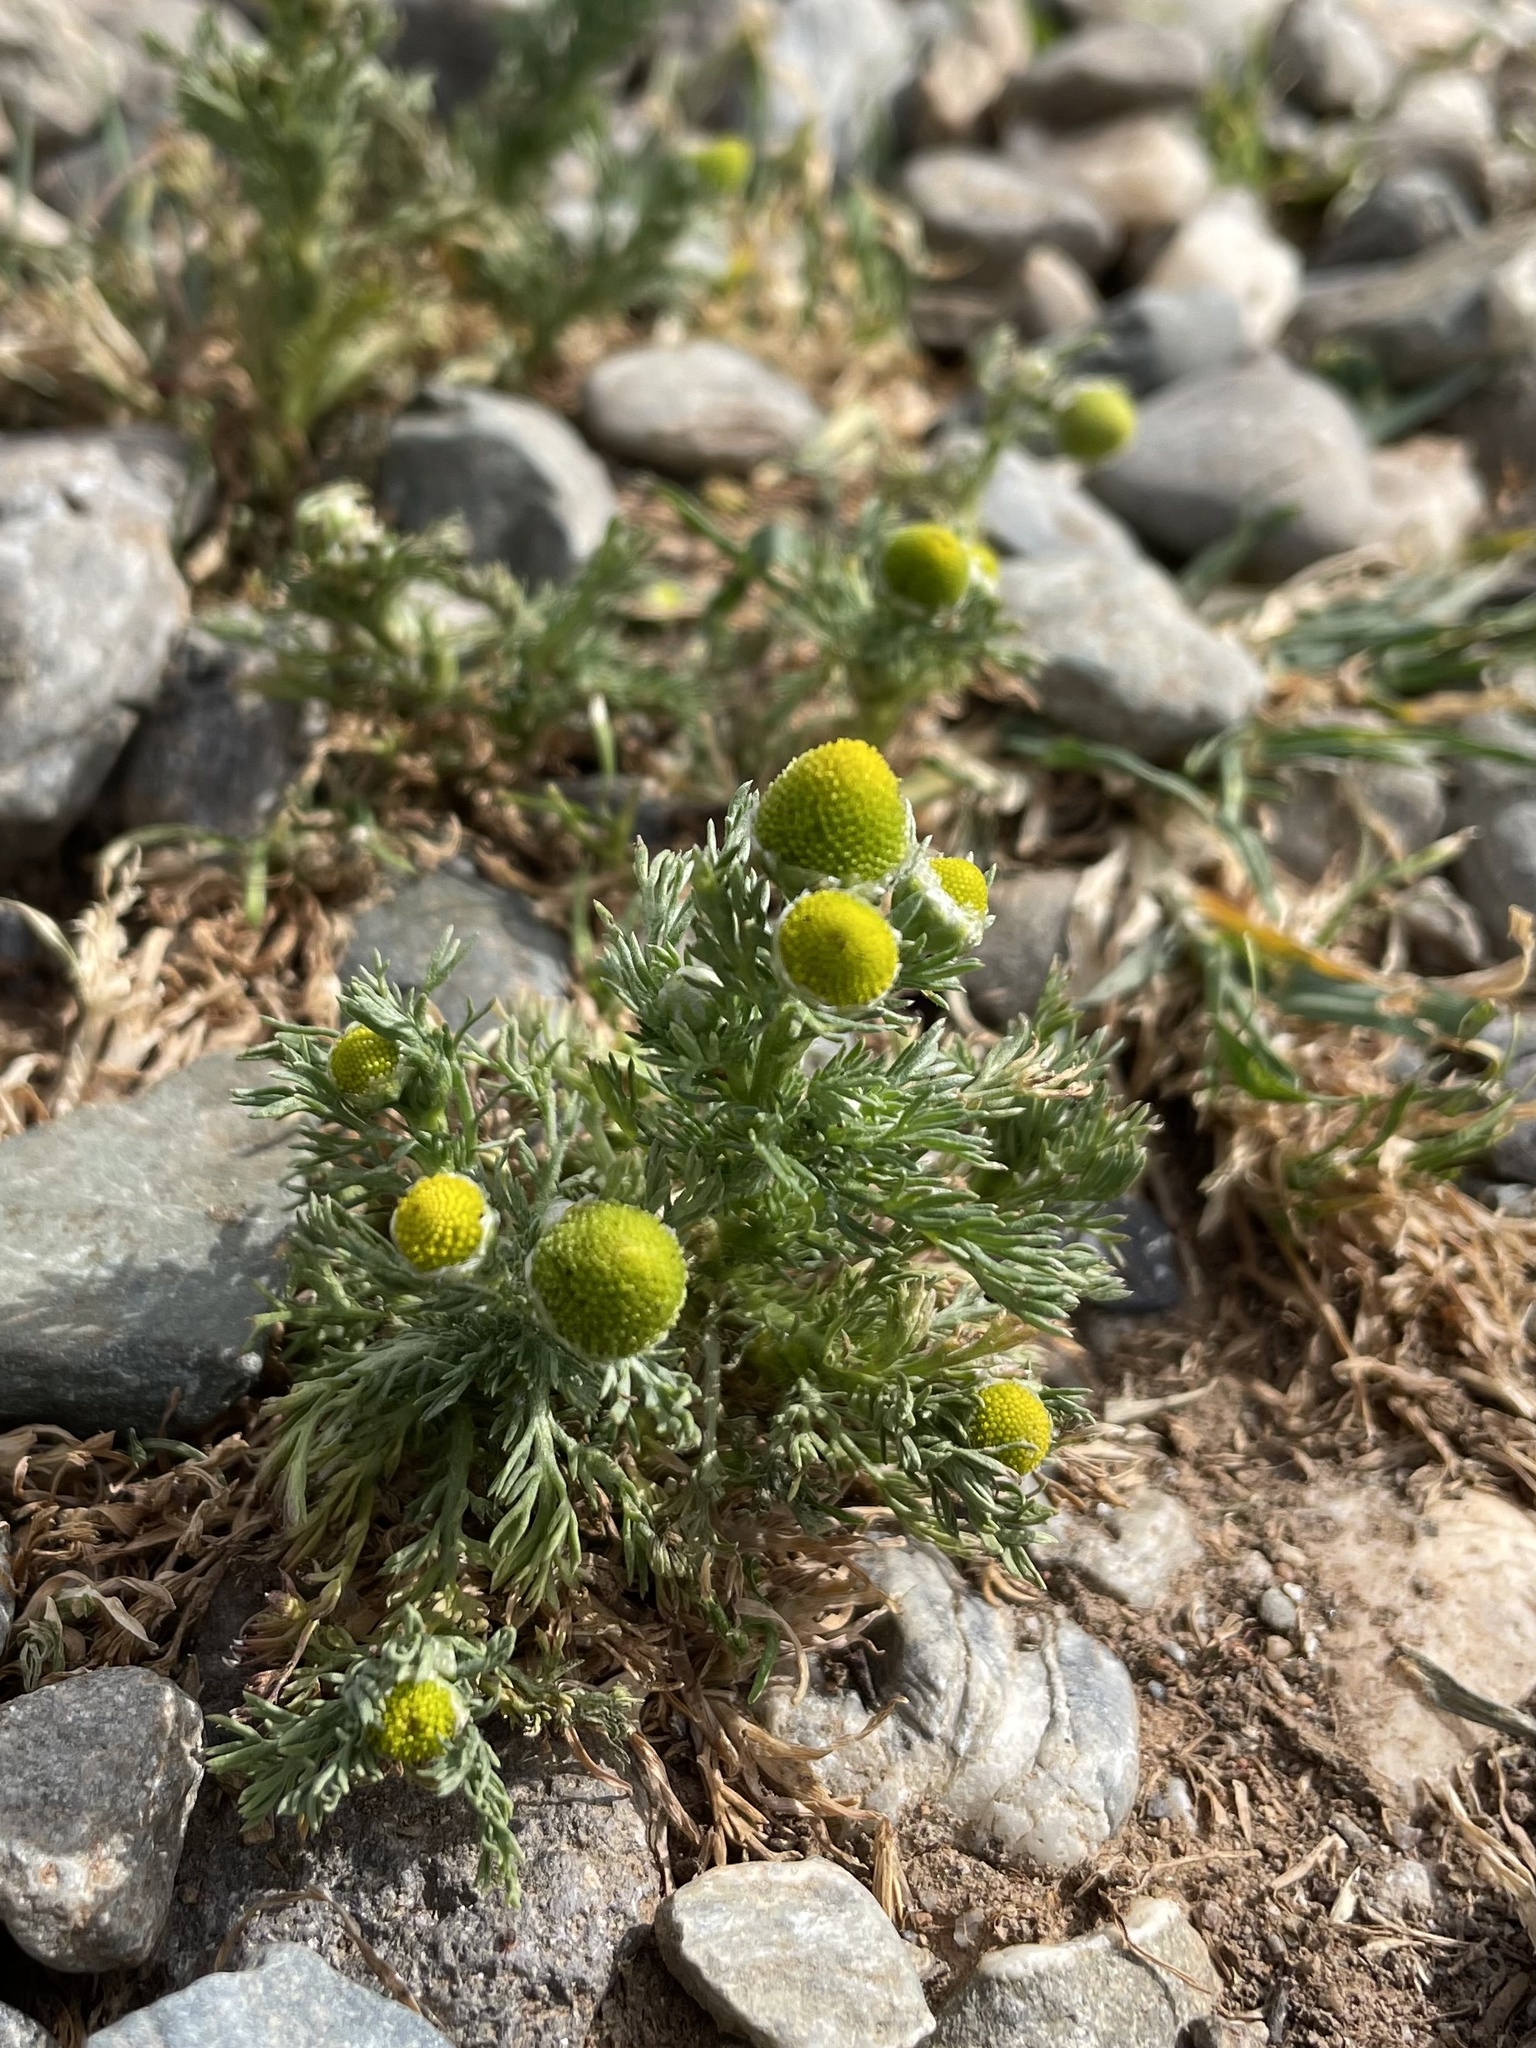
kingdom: Plantae
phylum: Tracheophyta
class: Magnoliopsida
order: Asterales
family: Asteraceae
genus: Matricaria
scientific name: Matricaria discoidea
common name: Disc mayweed
